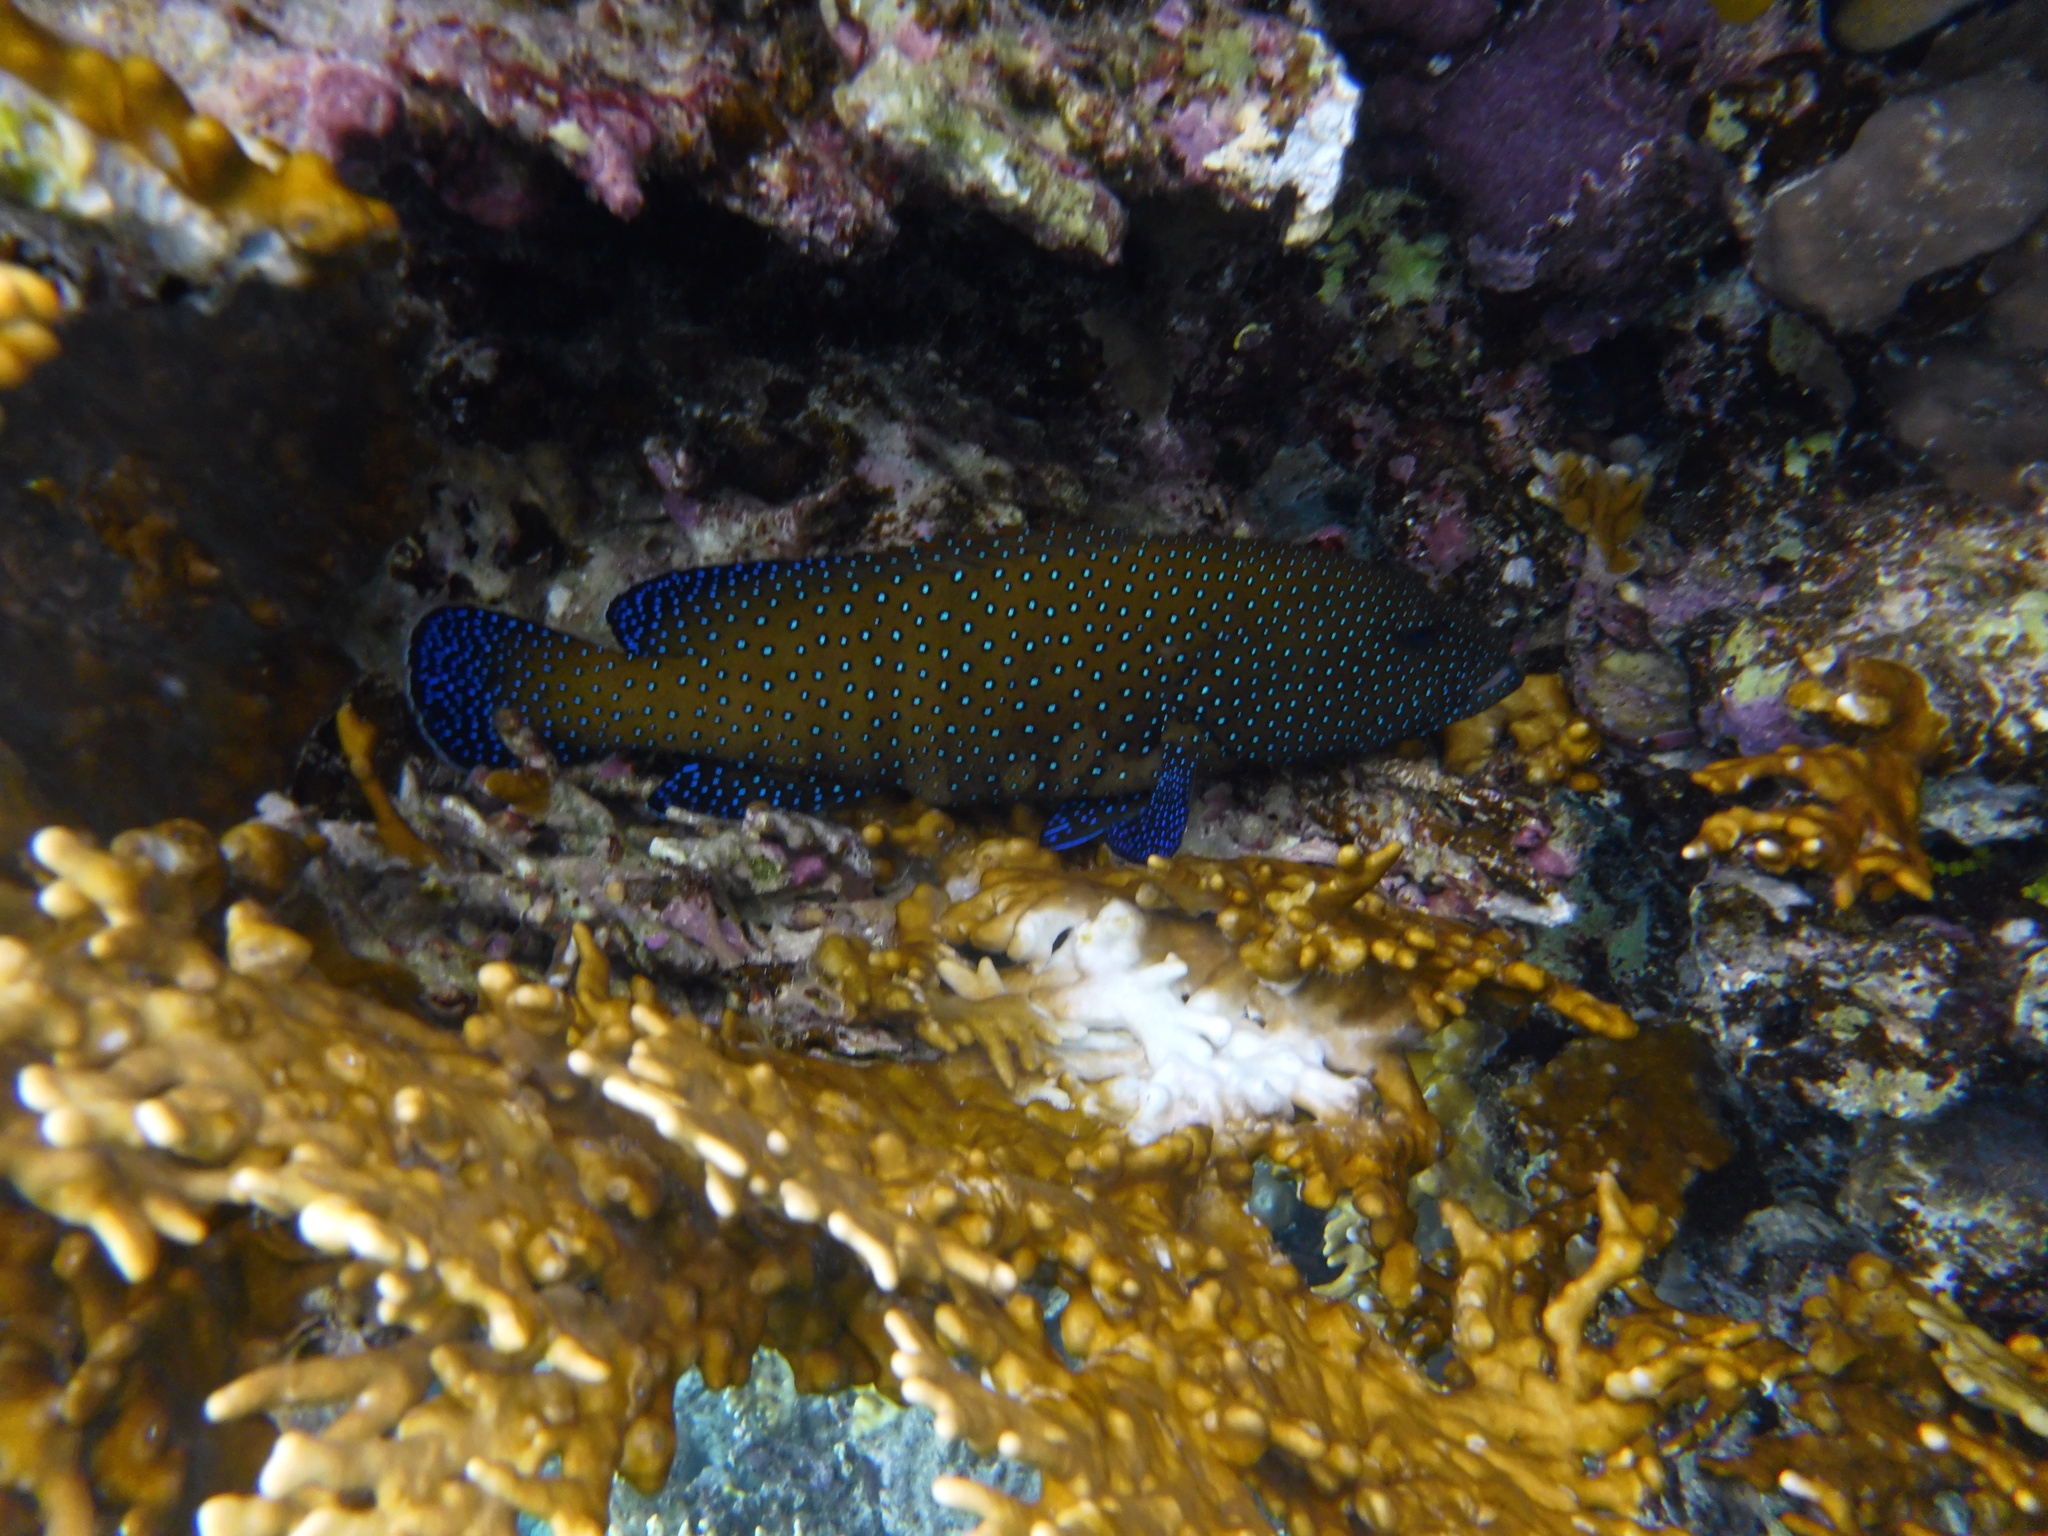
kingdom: Animalia
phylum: Chordata
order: Perciformes
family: Serranidae
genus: Cephalopholis
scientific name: Cephalopholis argus
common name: Peacock grouper
